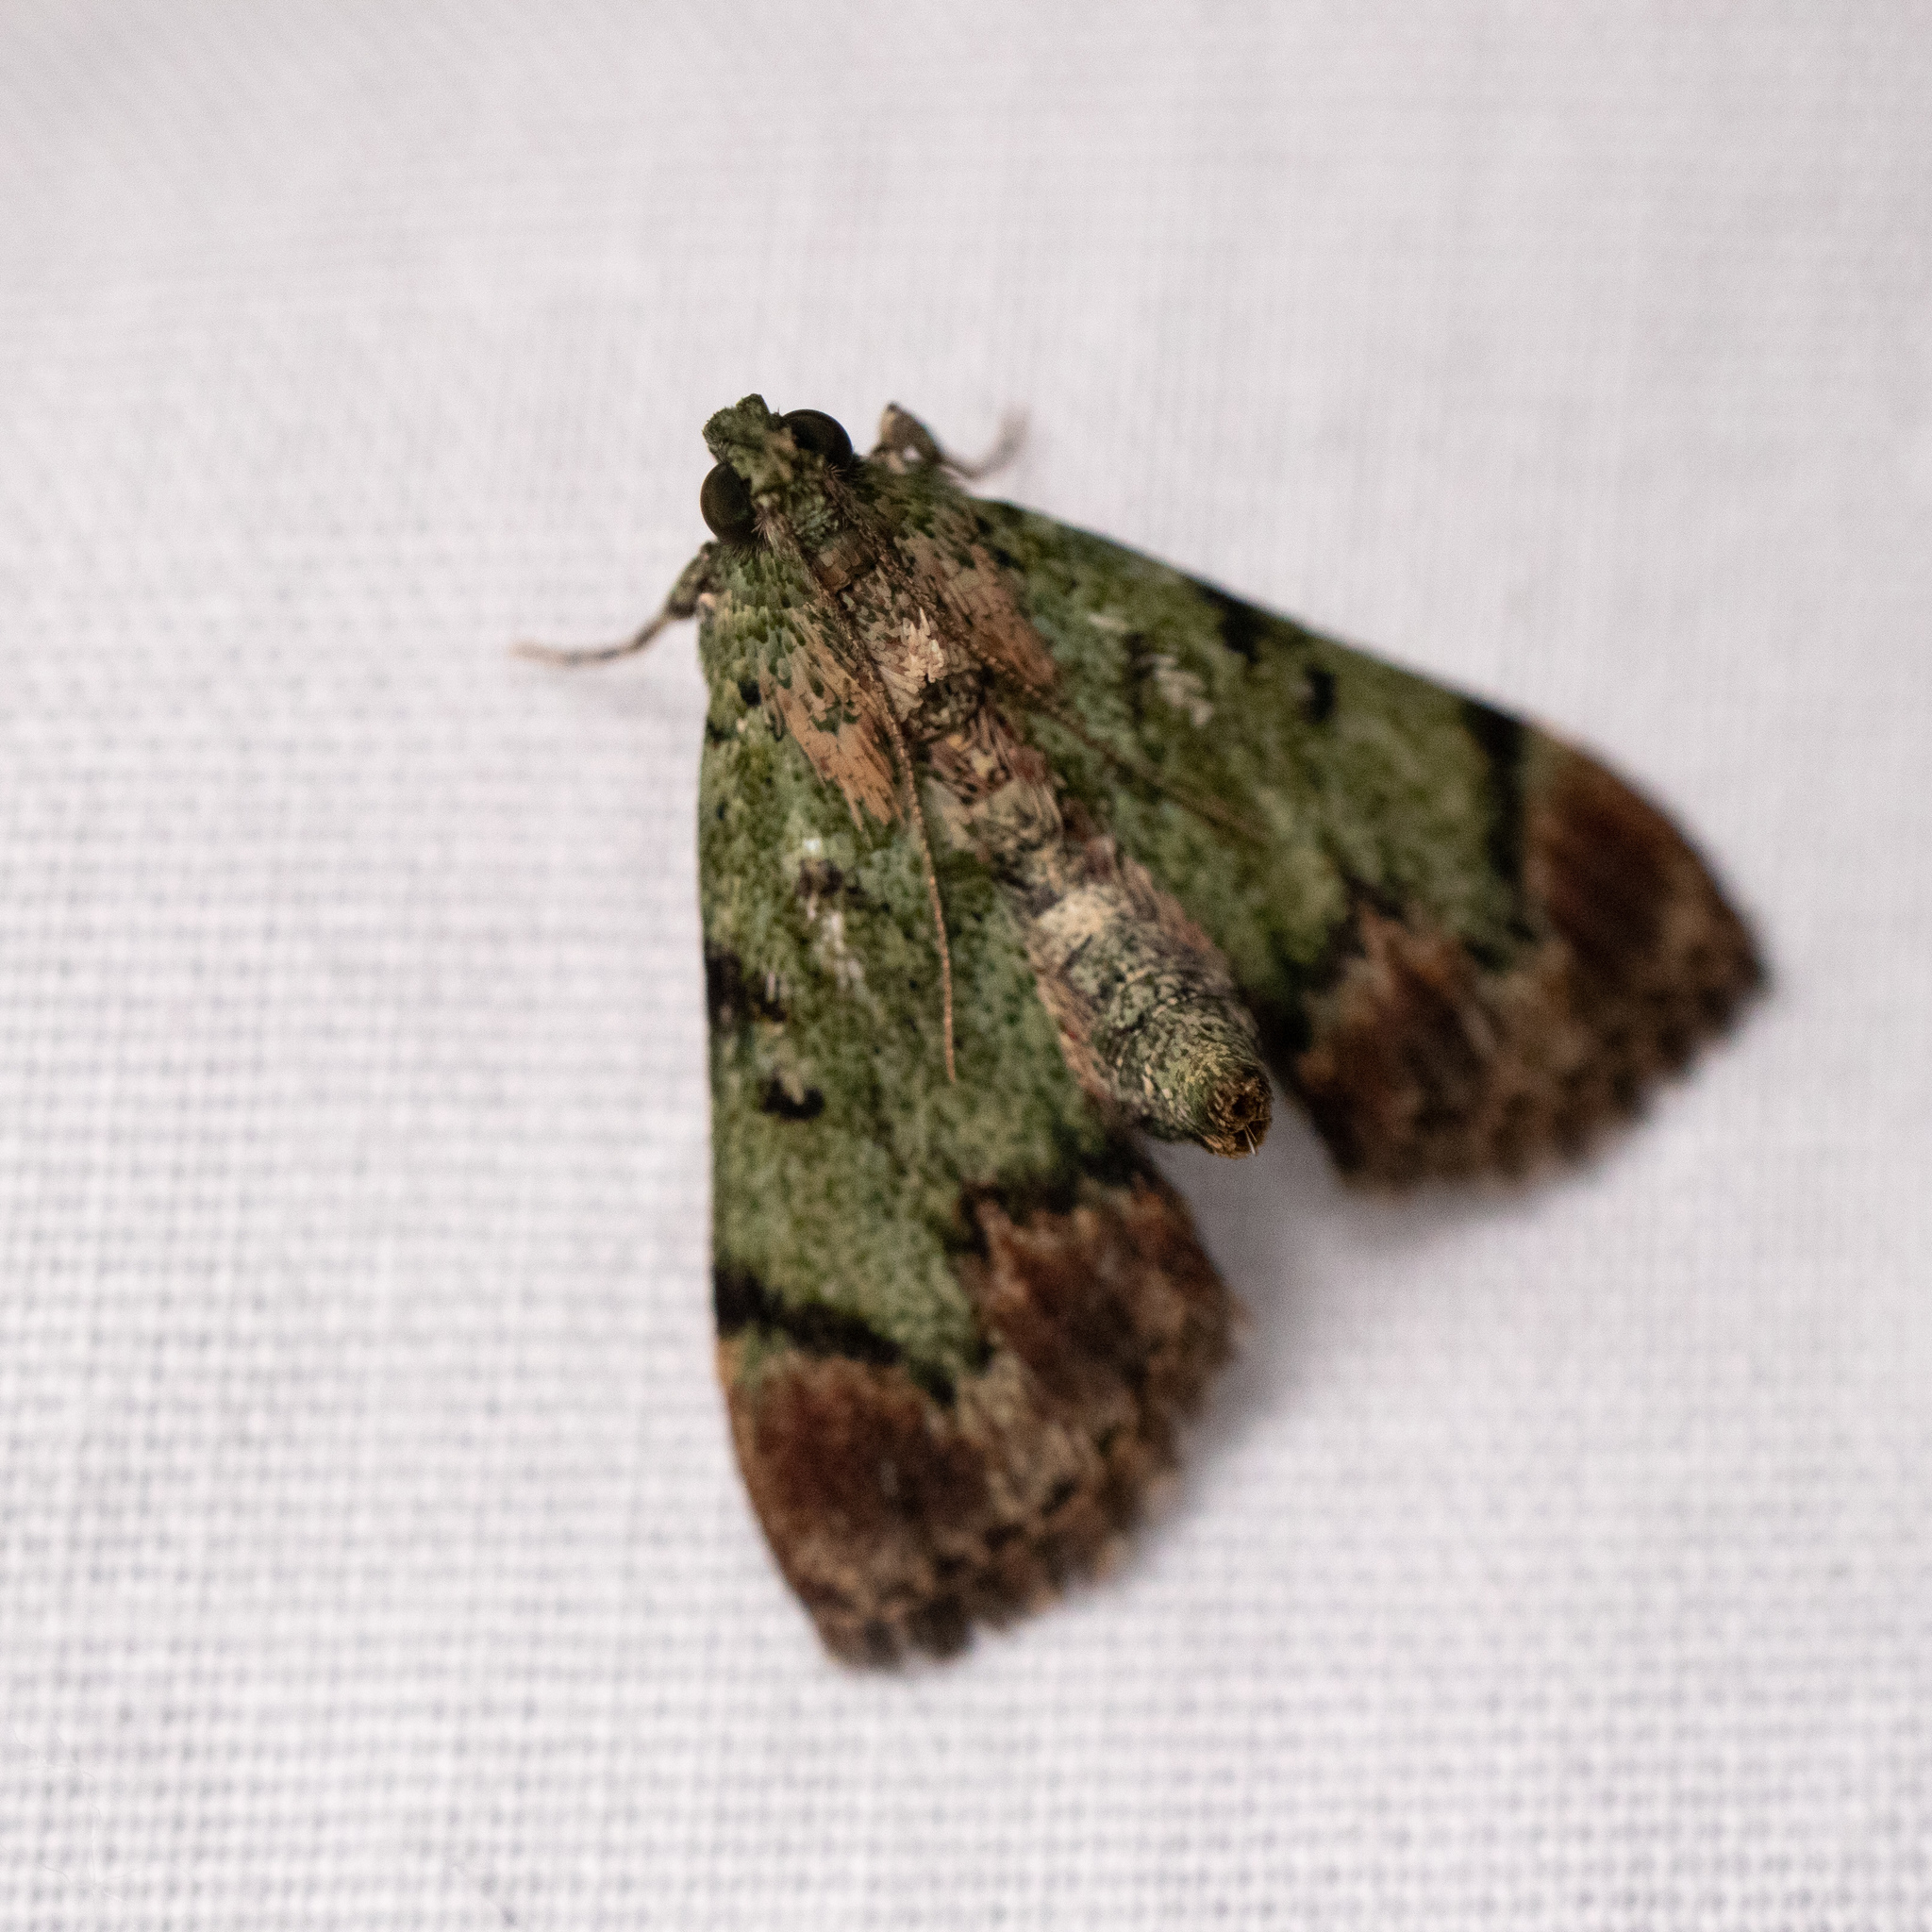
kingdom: Animalia
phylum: Arthropoda
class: Insecta
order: Lepidoptera
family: Pyralidae
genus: Epipaschia
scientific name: Epipaschia superatalis
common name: Dimorphic macalla moth
